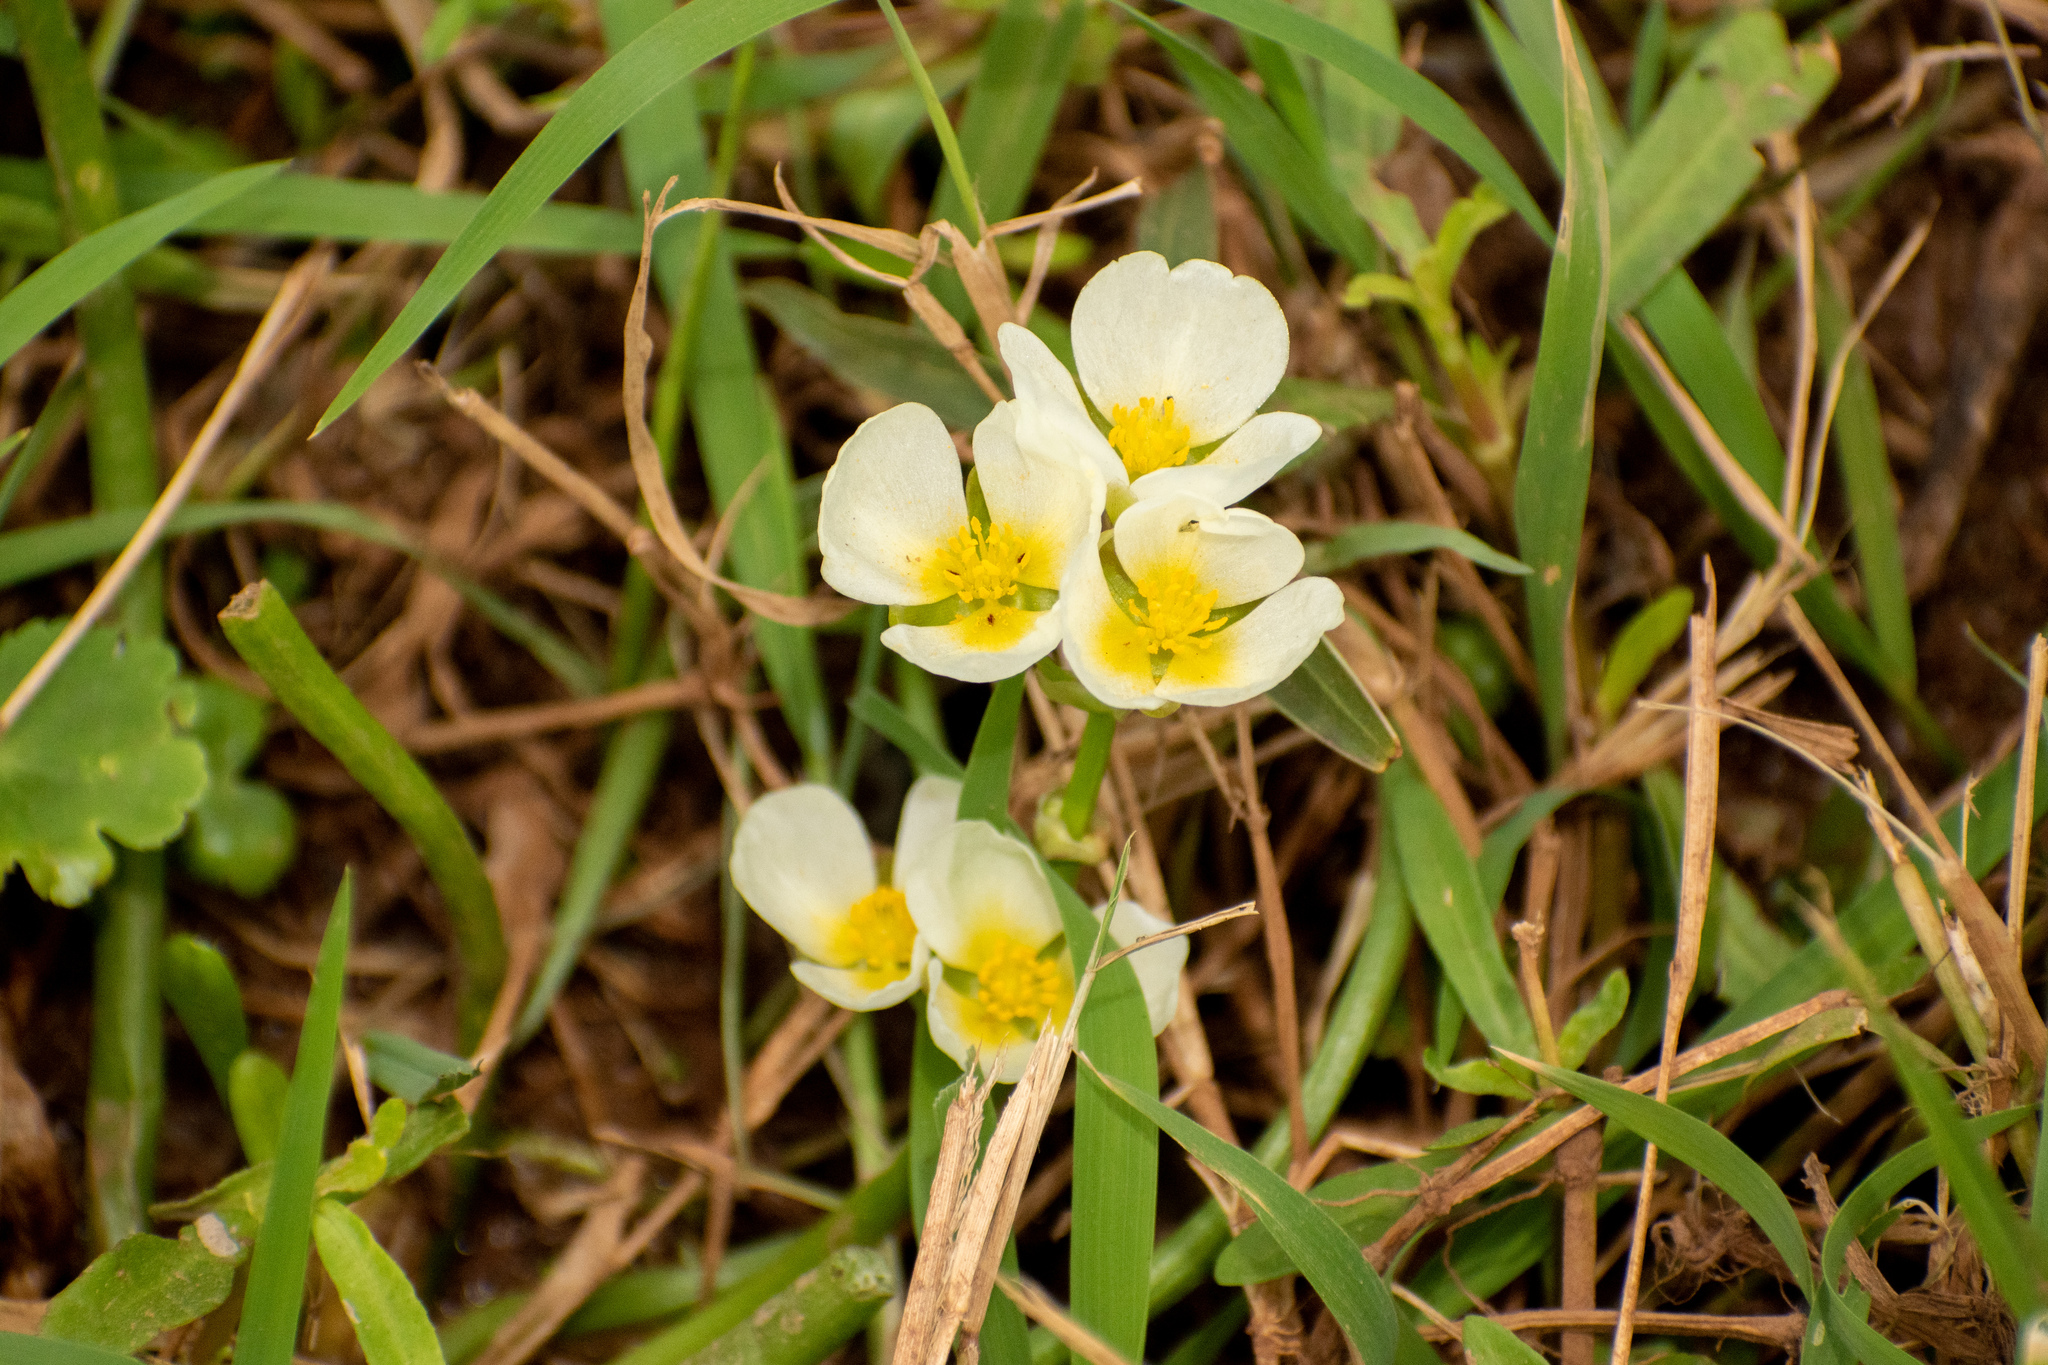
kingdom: Plantae
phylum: Tracheophyta
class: Liliopsida
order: Alismatales
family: Alismataceae
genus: Sagittaria
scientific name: Sagittaria montevidensis
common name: Giant arrowhead
